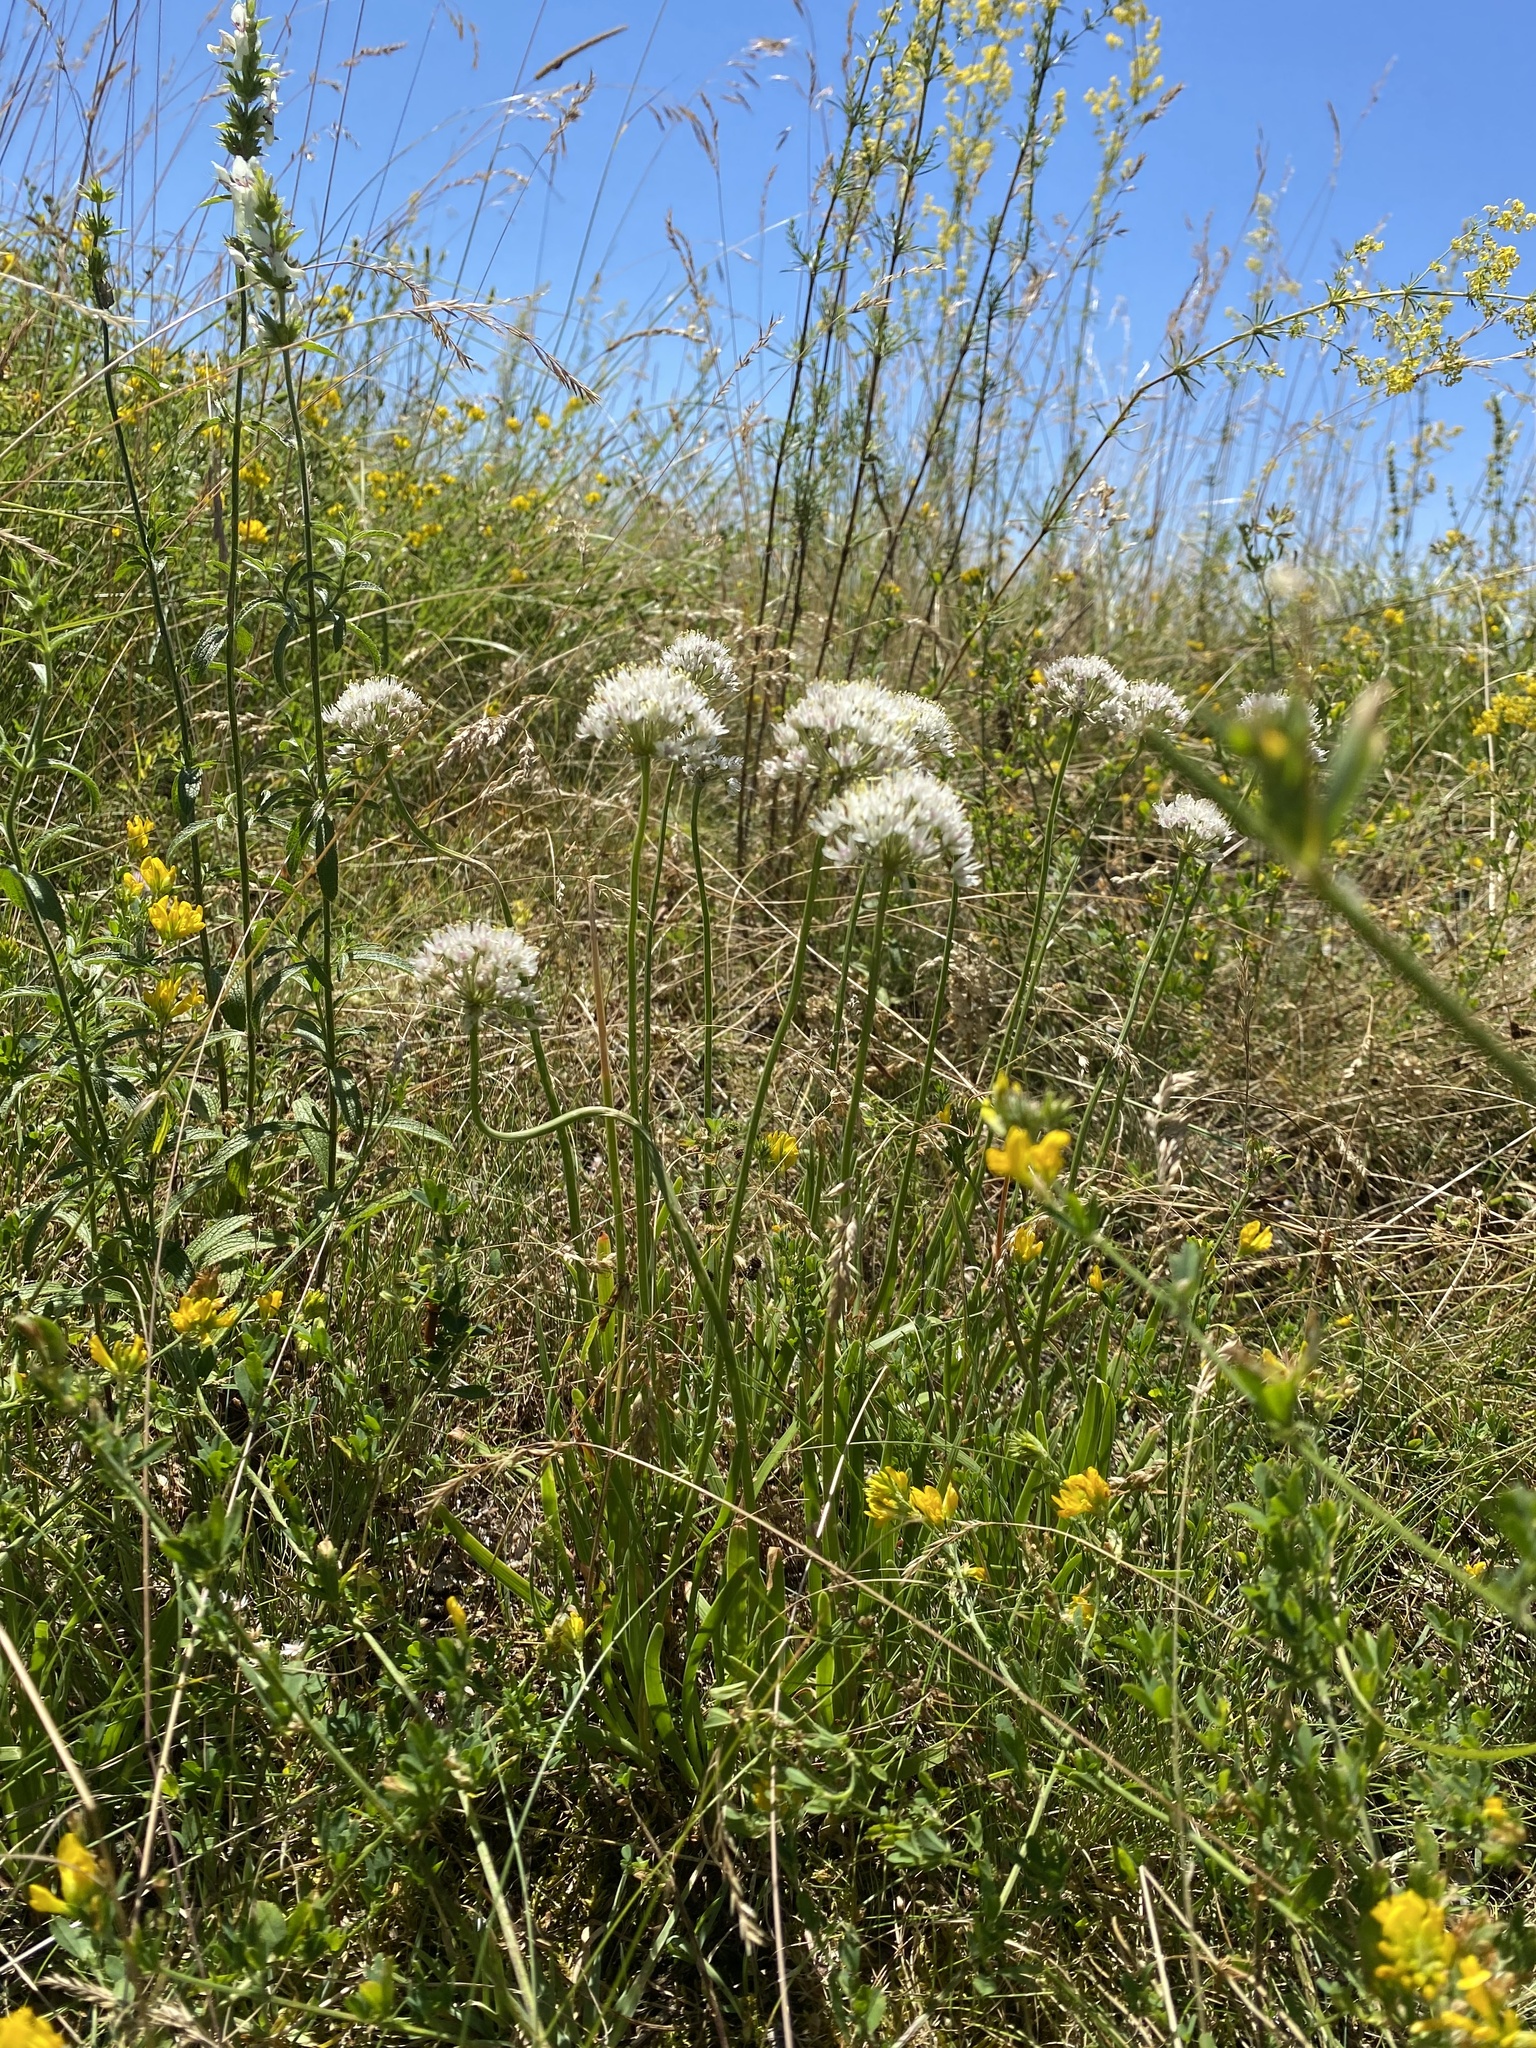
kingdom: Plantae
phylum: Tracheophyta
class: Liliopsida
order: Asparagales
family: Amaryllidaceae
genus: Allium
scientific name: Allium denudatum
